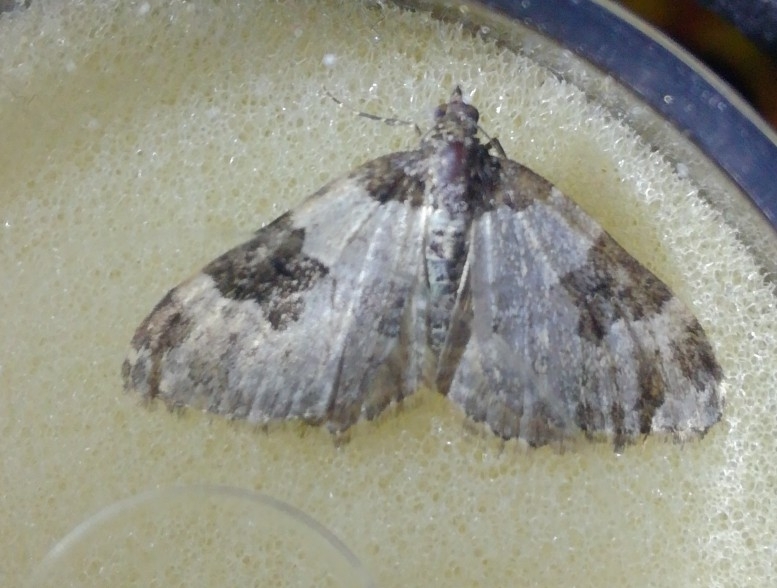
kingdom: Animalia
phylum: Arthropoda
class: Insecta
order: Lepidoptera
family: Geometridae
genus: Xanthorhoe
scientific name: Xanthorhoe fluctuata
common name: Garden carpet
